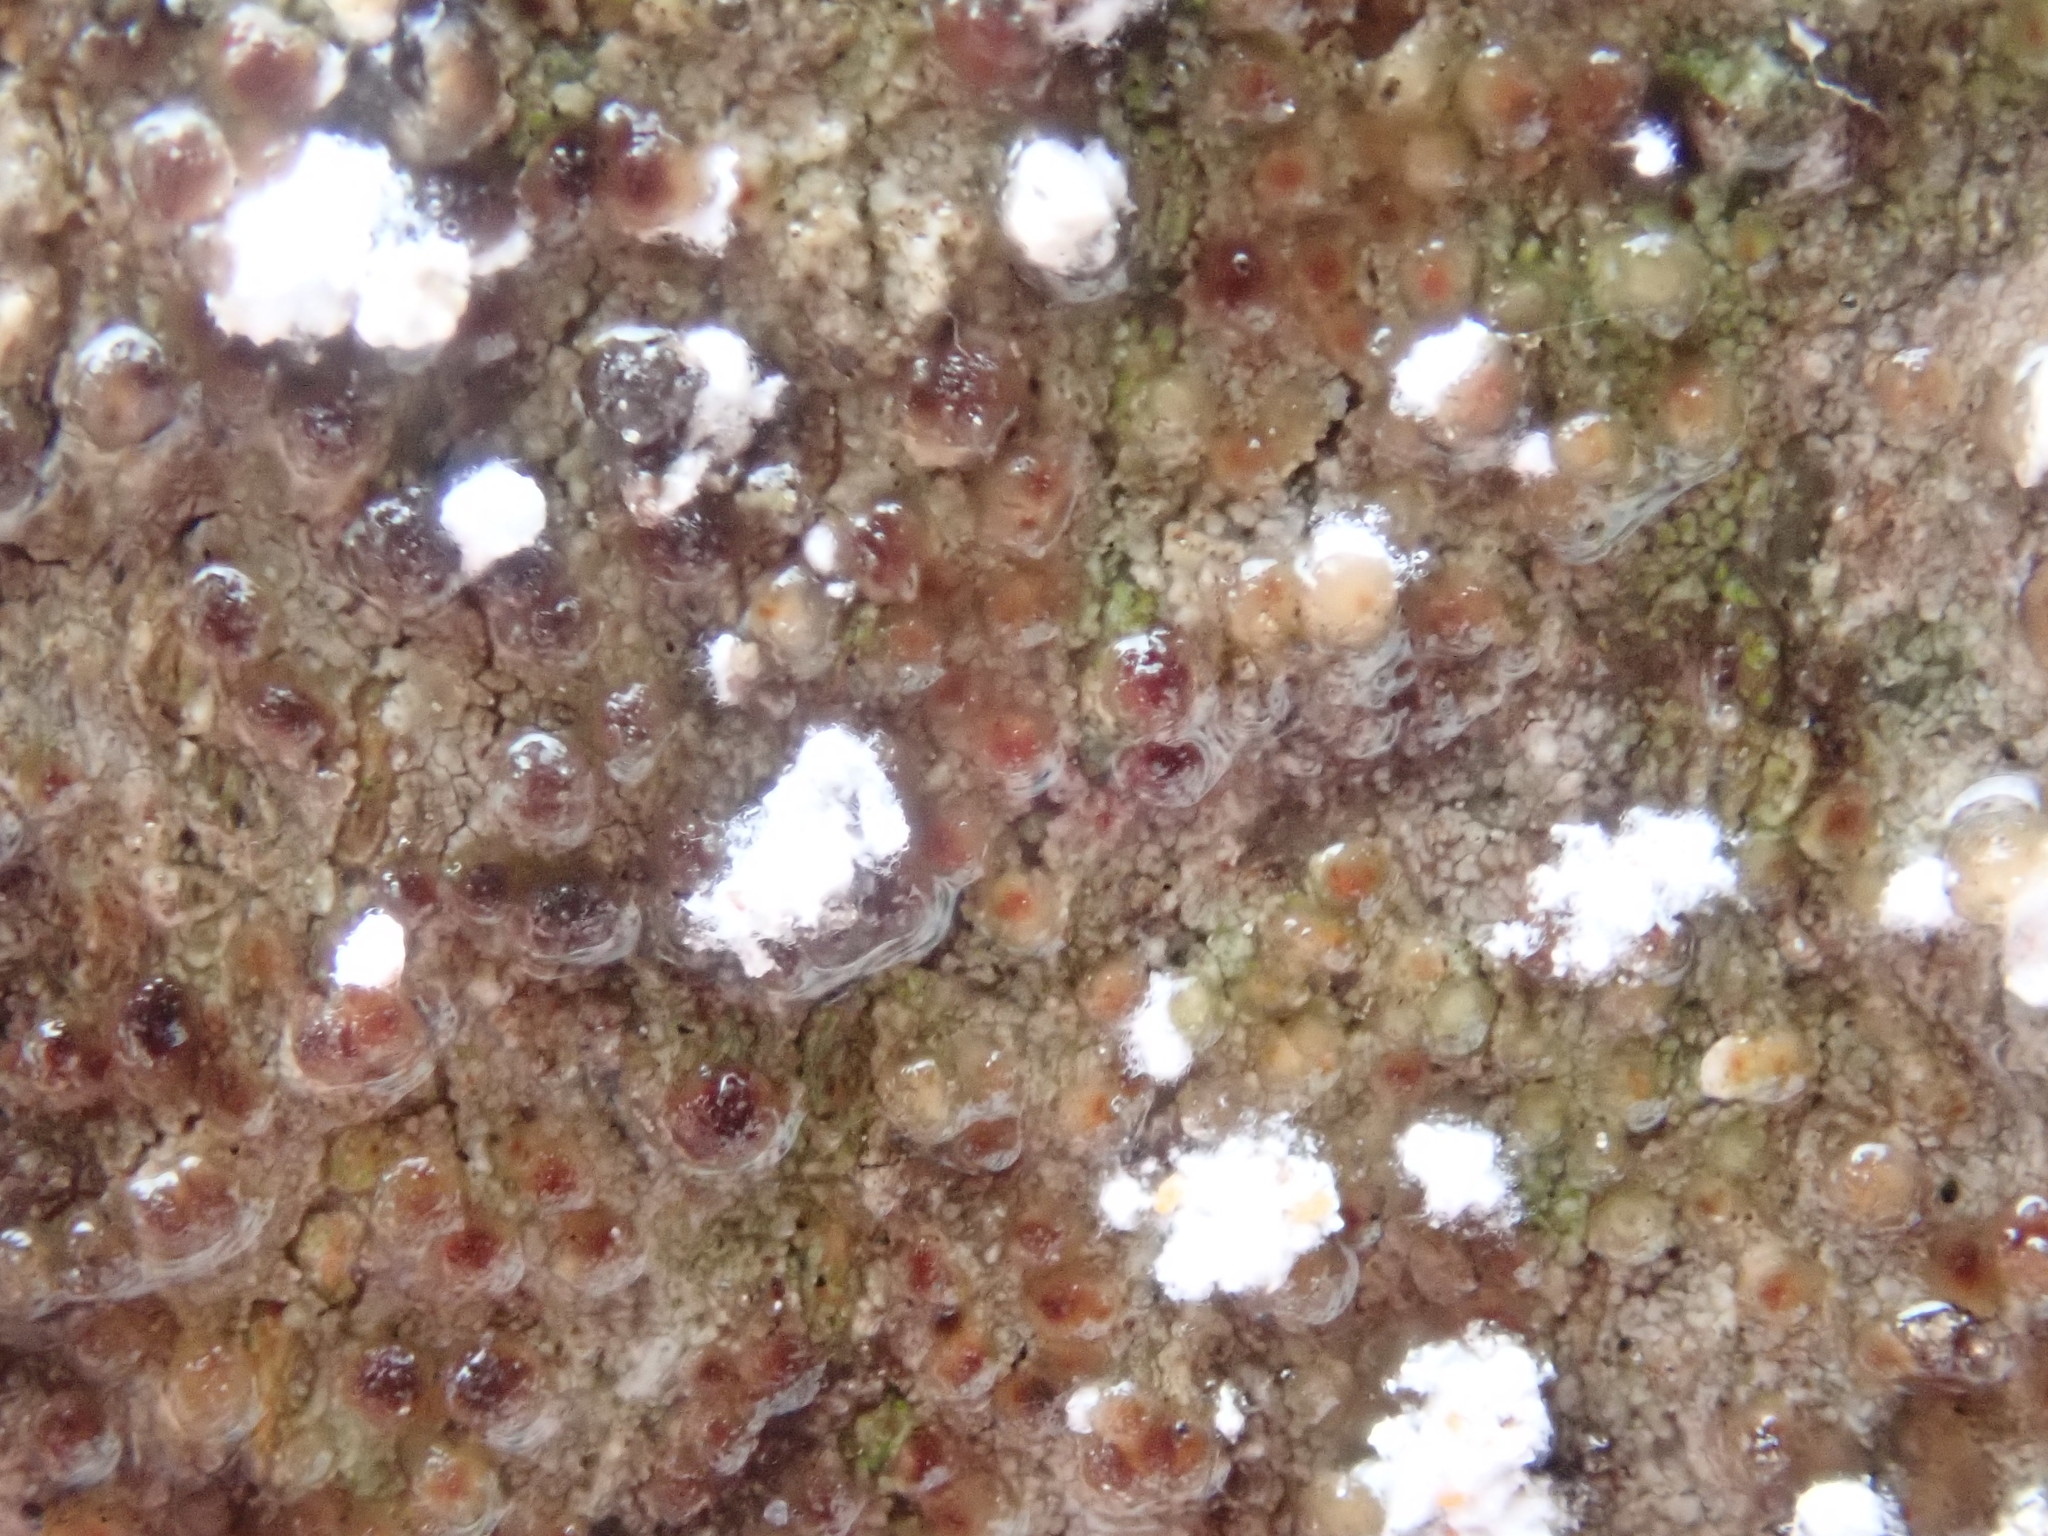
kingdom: Animalia
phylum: Arthropoda
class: Insecta
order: Hemiptera
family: Eriococcidae
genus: Cryptococcus
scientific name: Cryptococcus fagisuga
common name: Beech scale
